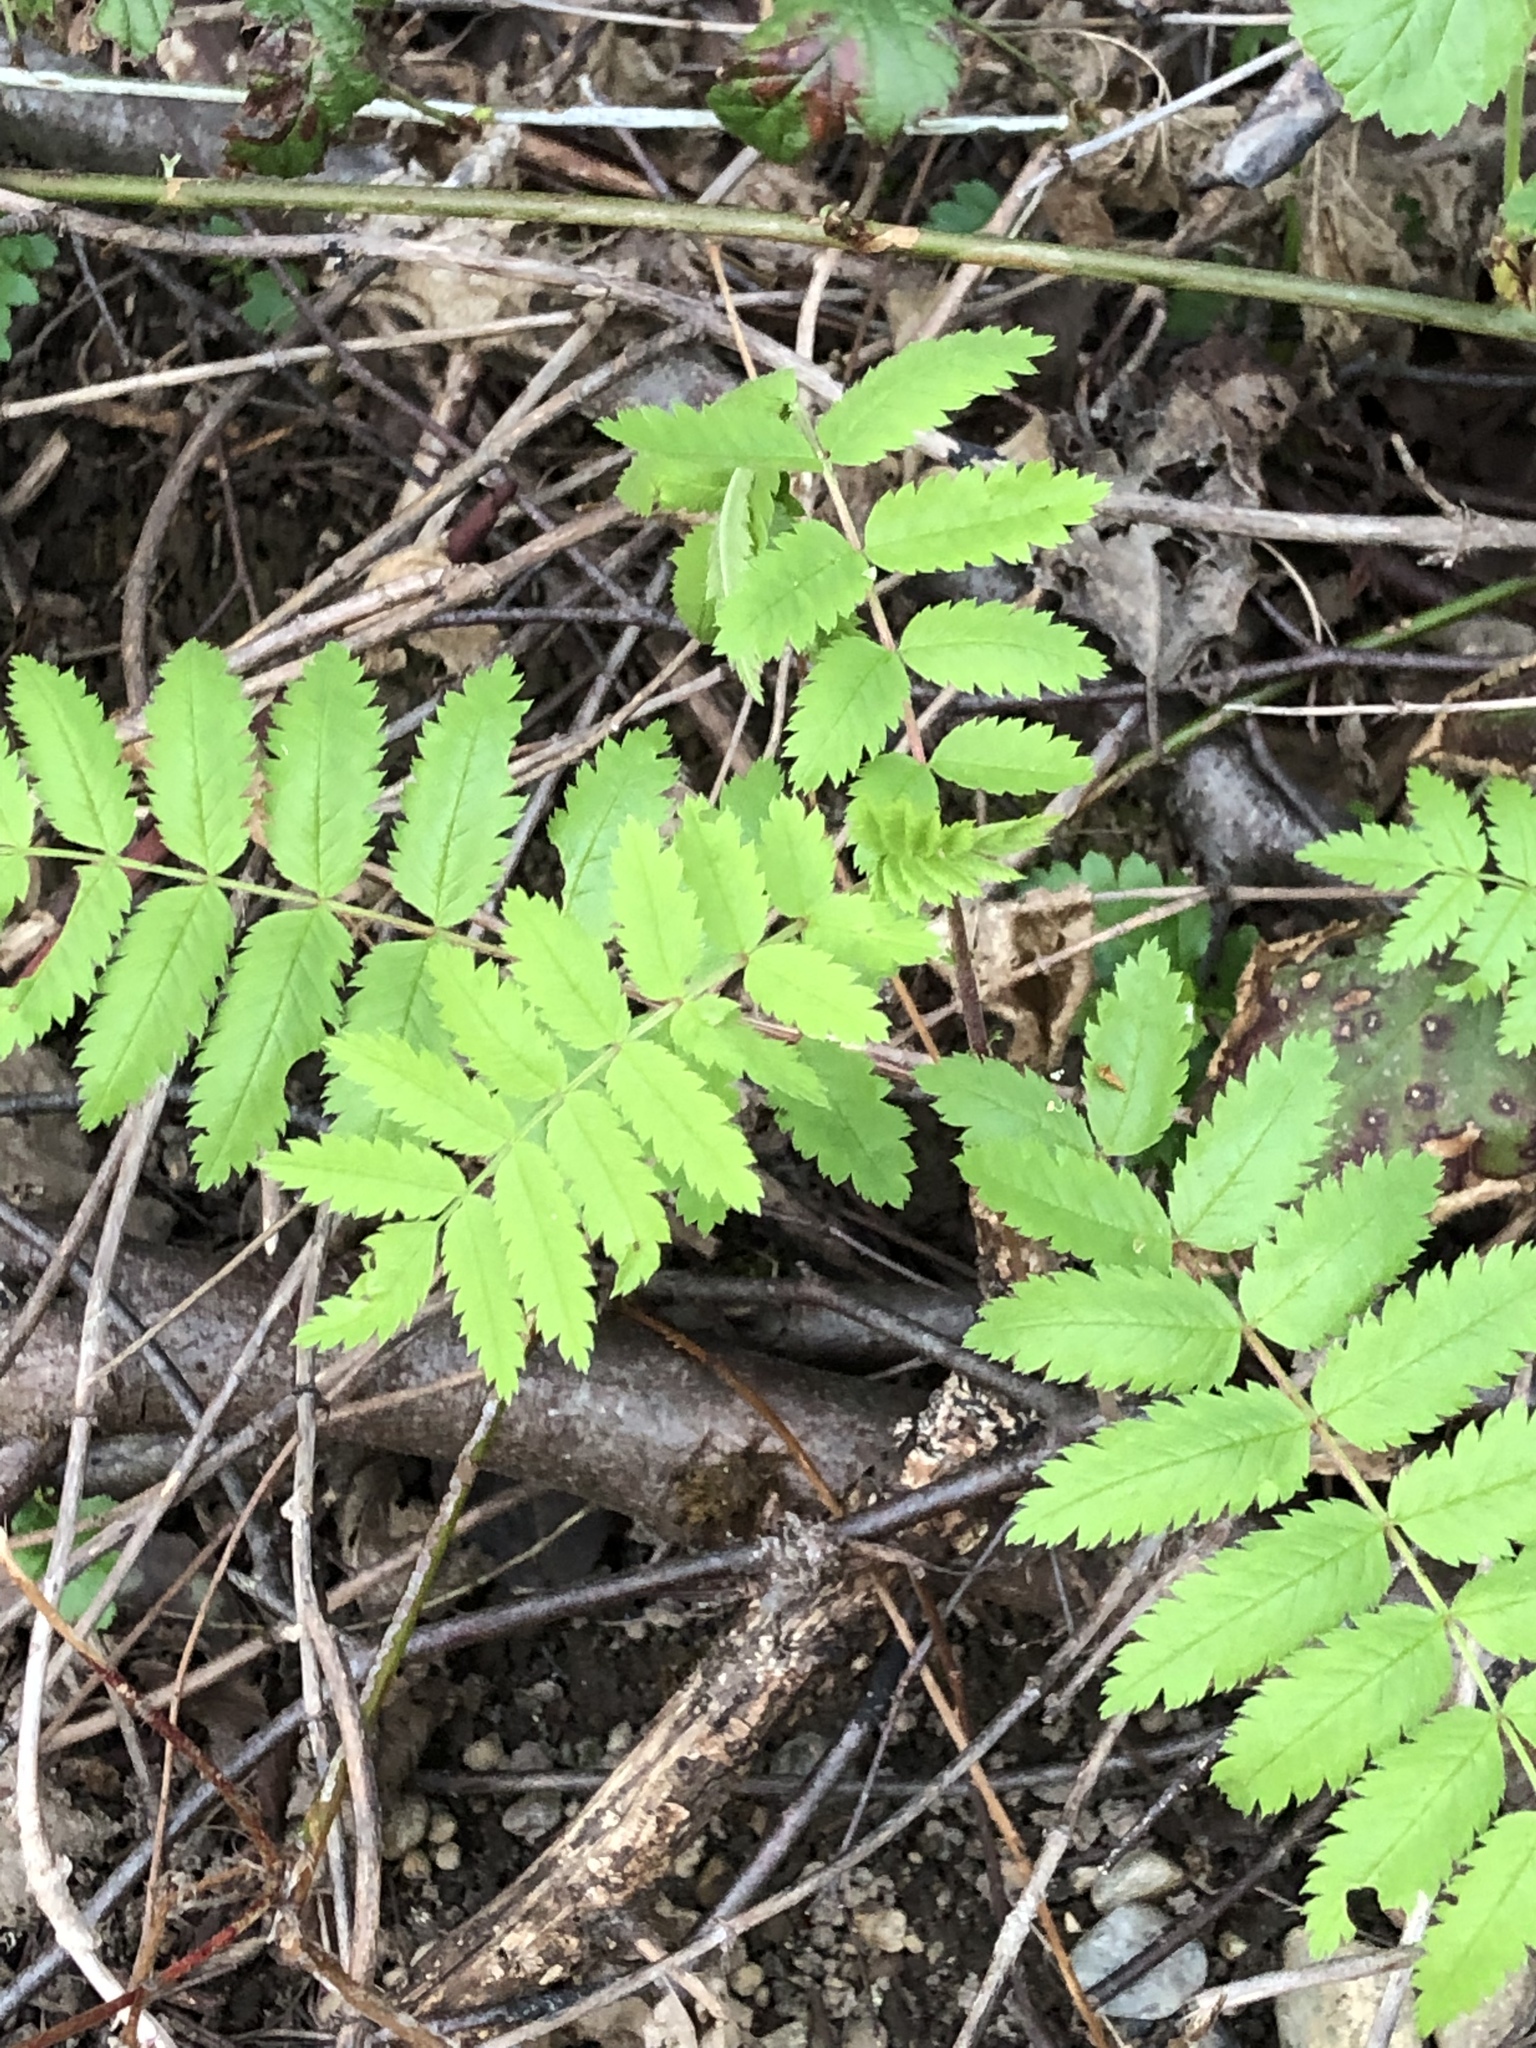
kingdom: Plantae
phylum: Tracheophyta
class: Magnoliopsida
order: Rosales
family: Rosaceae
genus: Sorbus
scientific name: Sorbus aucuparia
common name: Rowan
